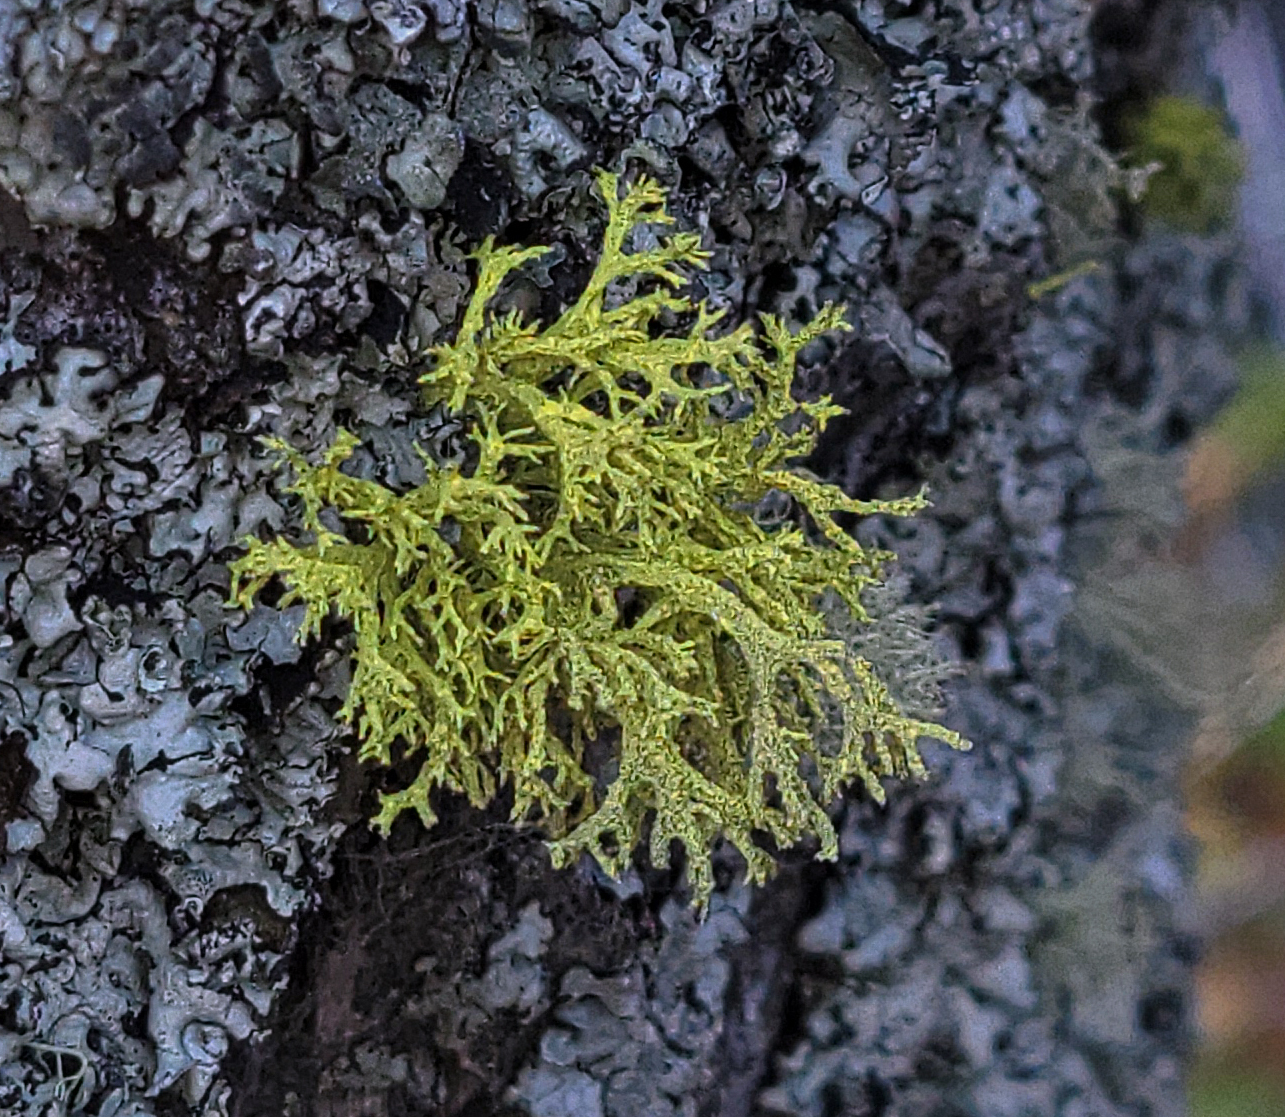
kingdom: Fungi
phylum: Ascomycota
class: Lecanoromycetes
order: Lecanorales
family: Parmeliaceae
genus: Letharia
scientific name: Letharia vulpina
